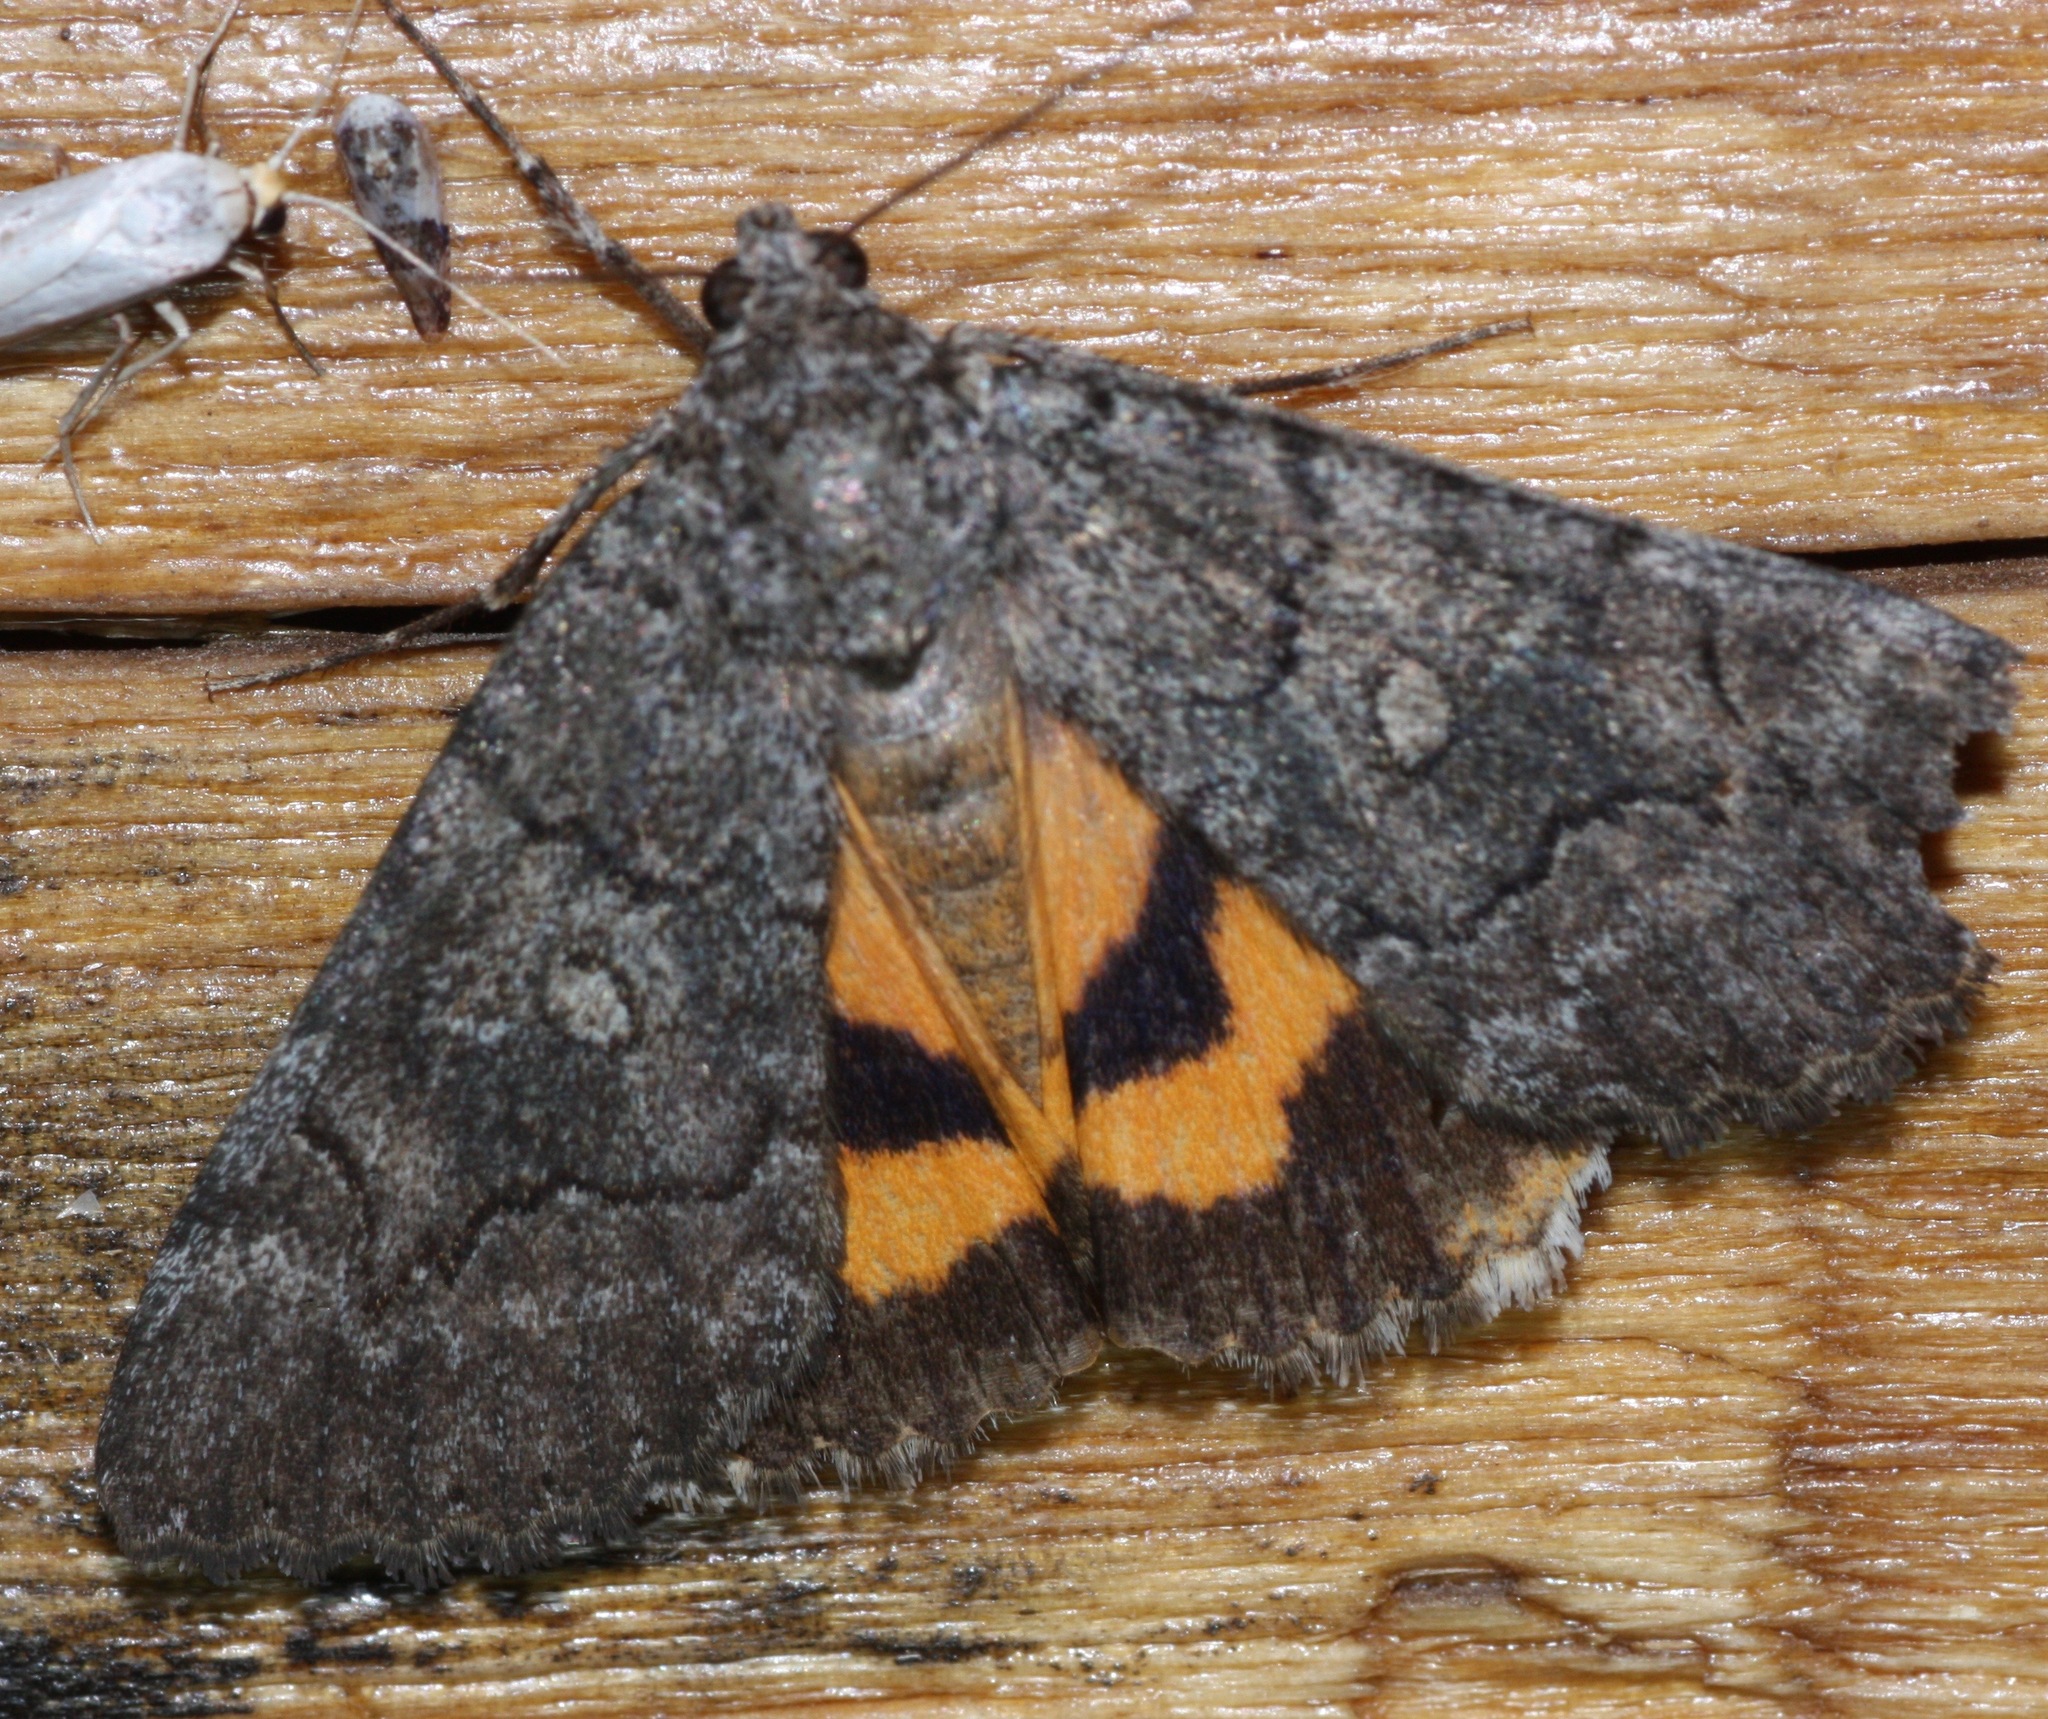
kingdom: Animalia
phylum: Arthropoda
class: Insecta
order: Lepidoptera
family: Erebidae
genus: Catocala
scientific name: Catocala chelidonia
